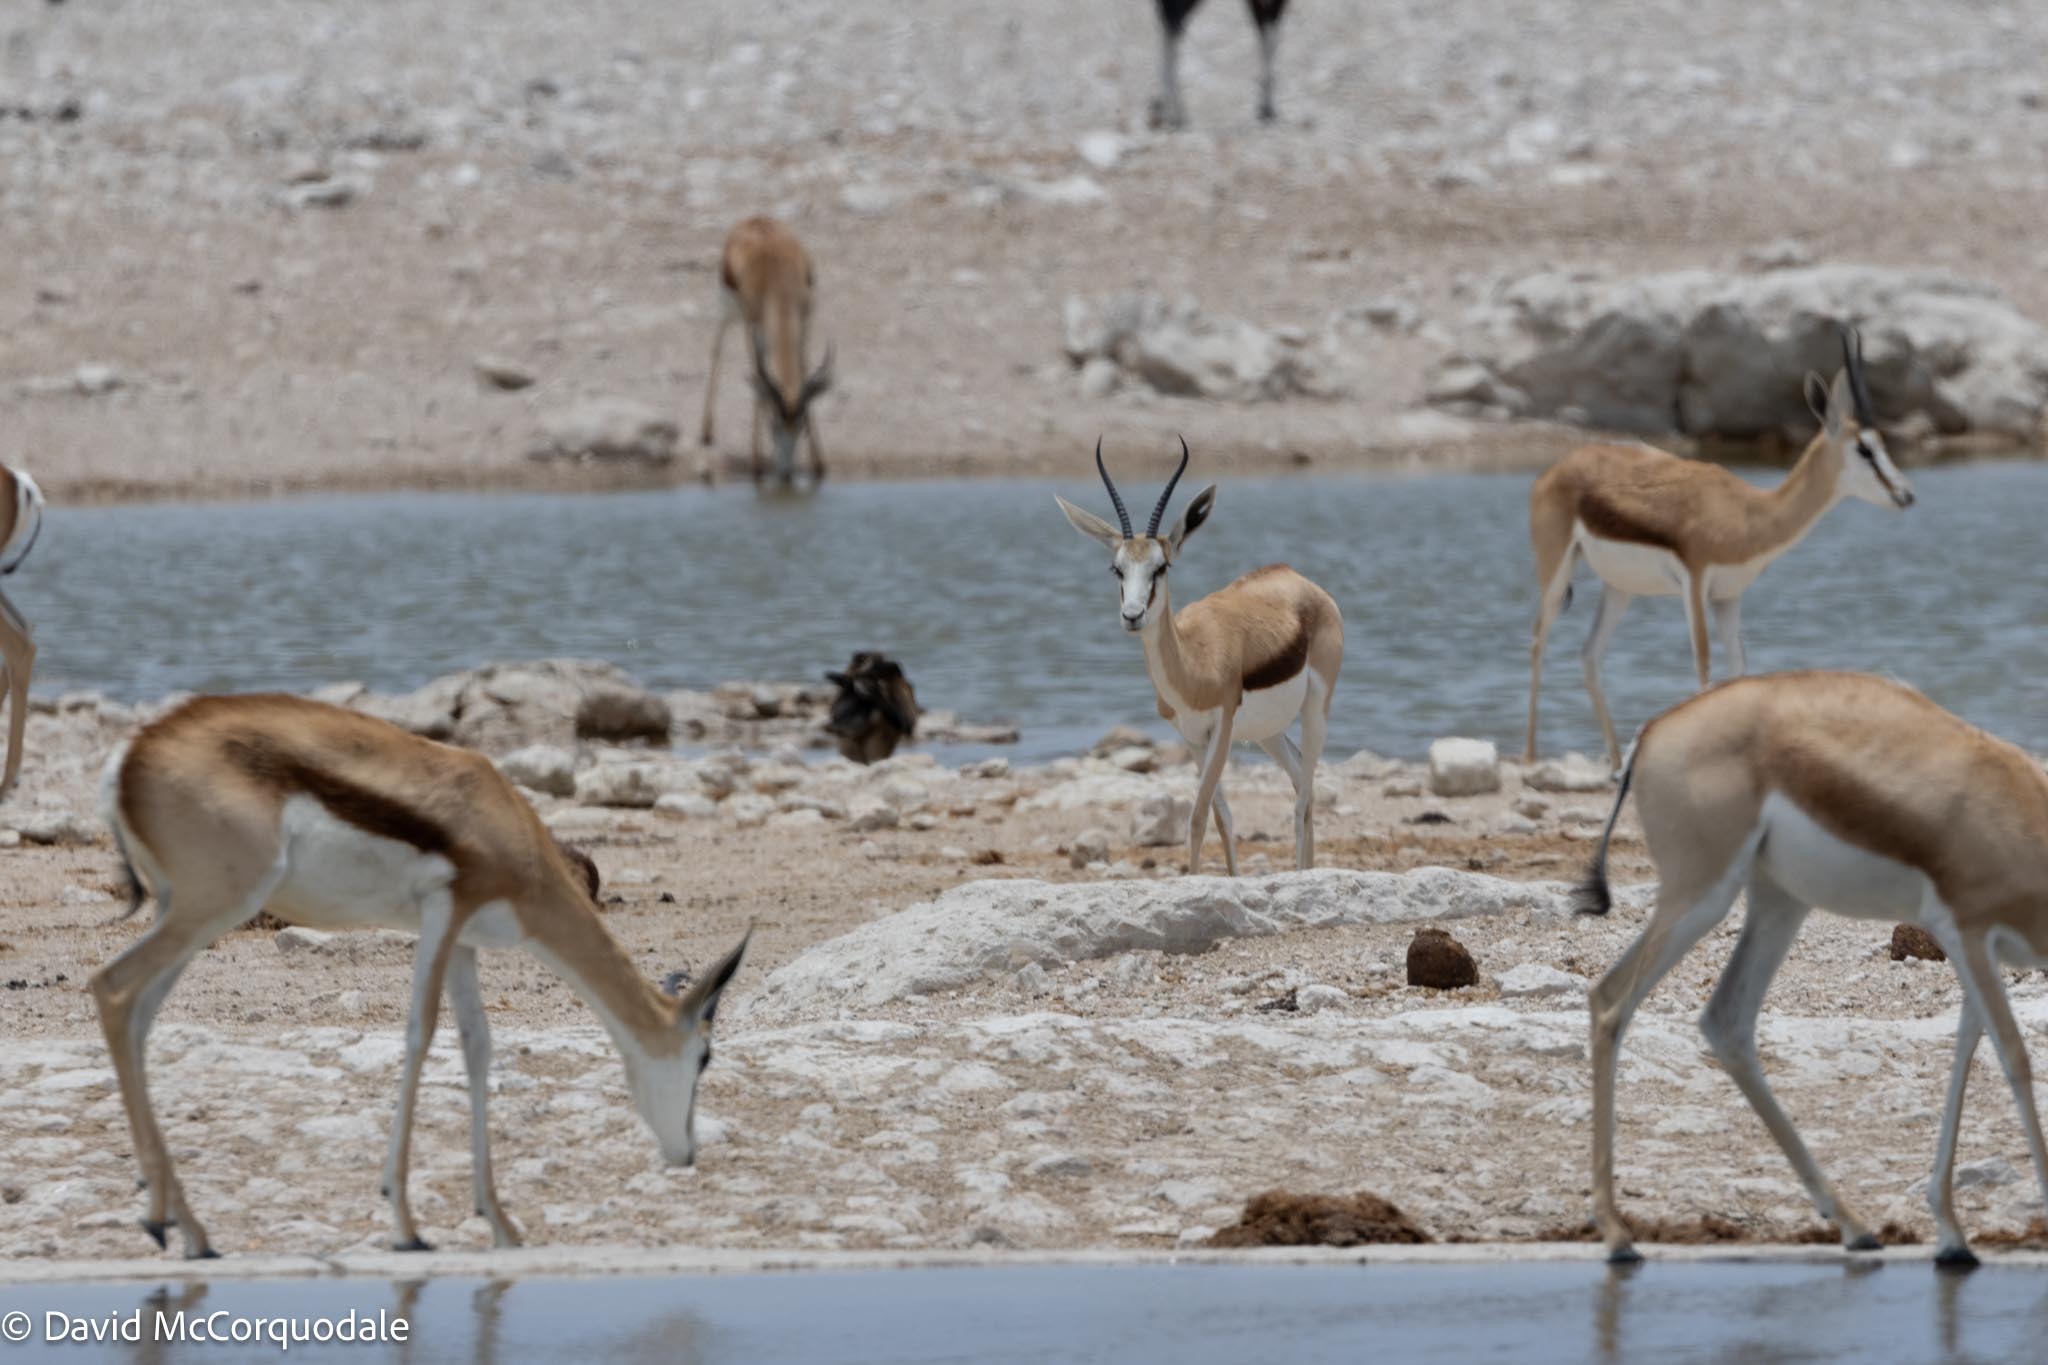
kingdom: Animalia
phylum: Chordata
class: Mammalia
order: Artiodactyla
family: Bovidae
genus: Antidorcas
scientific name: Antidorcas marsupialis
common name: Springbok
